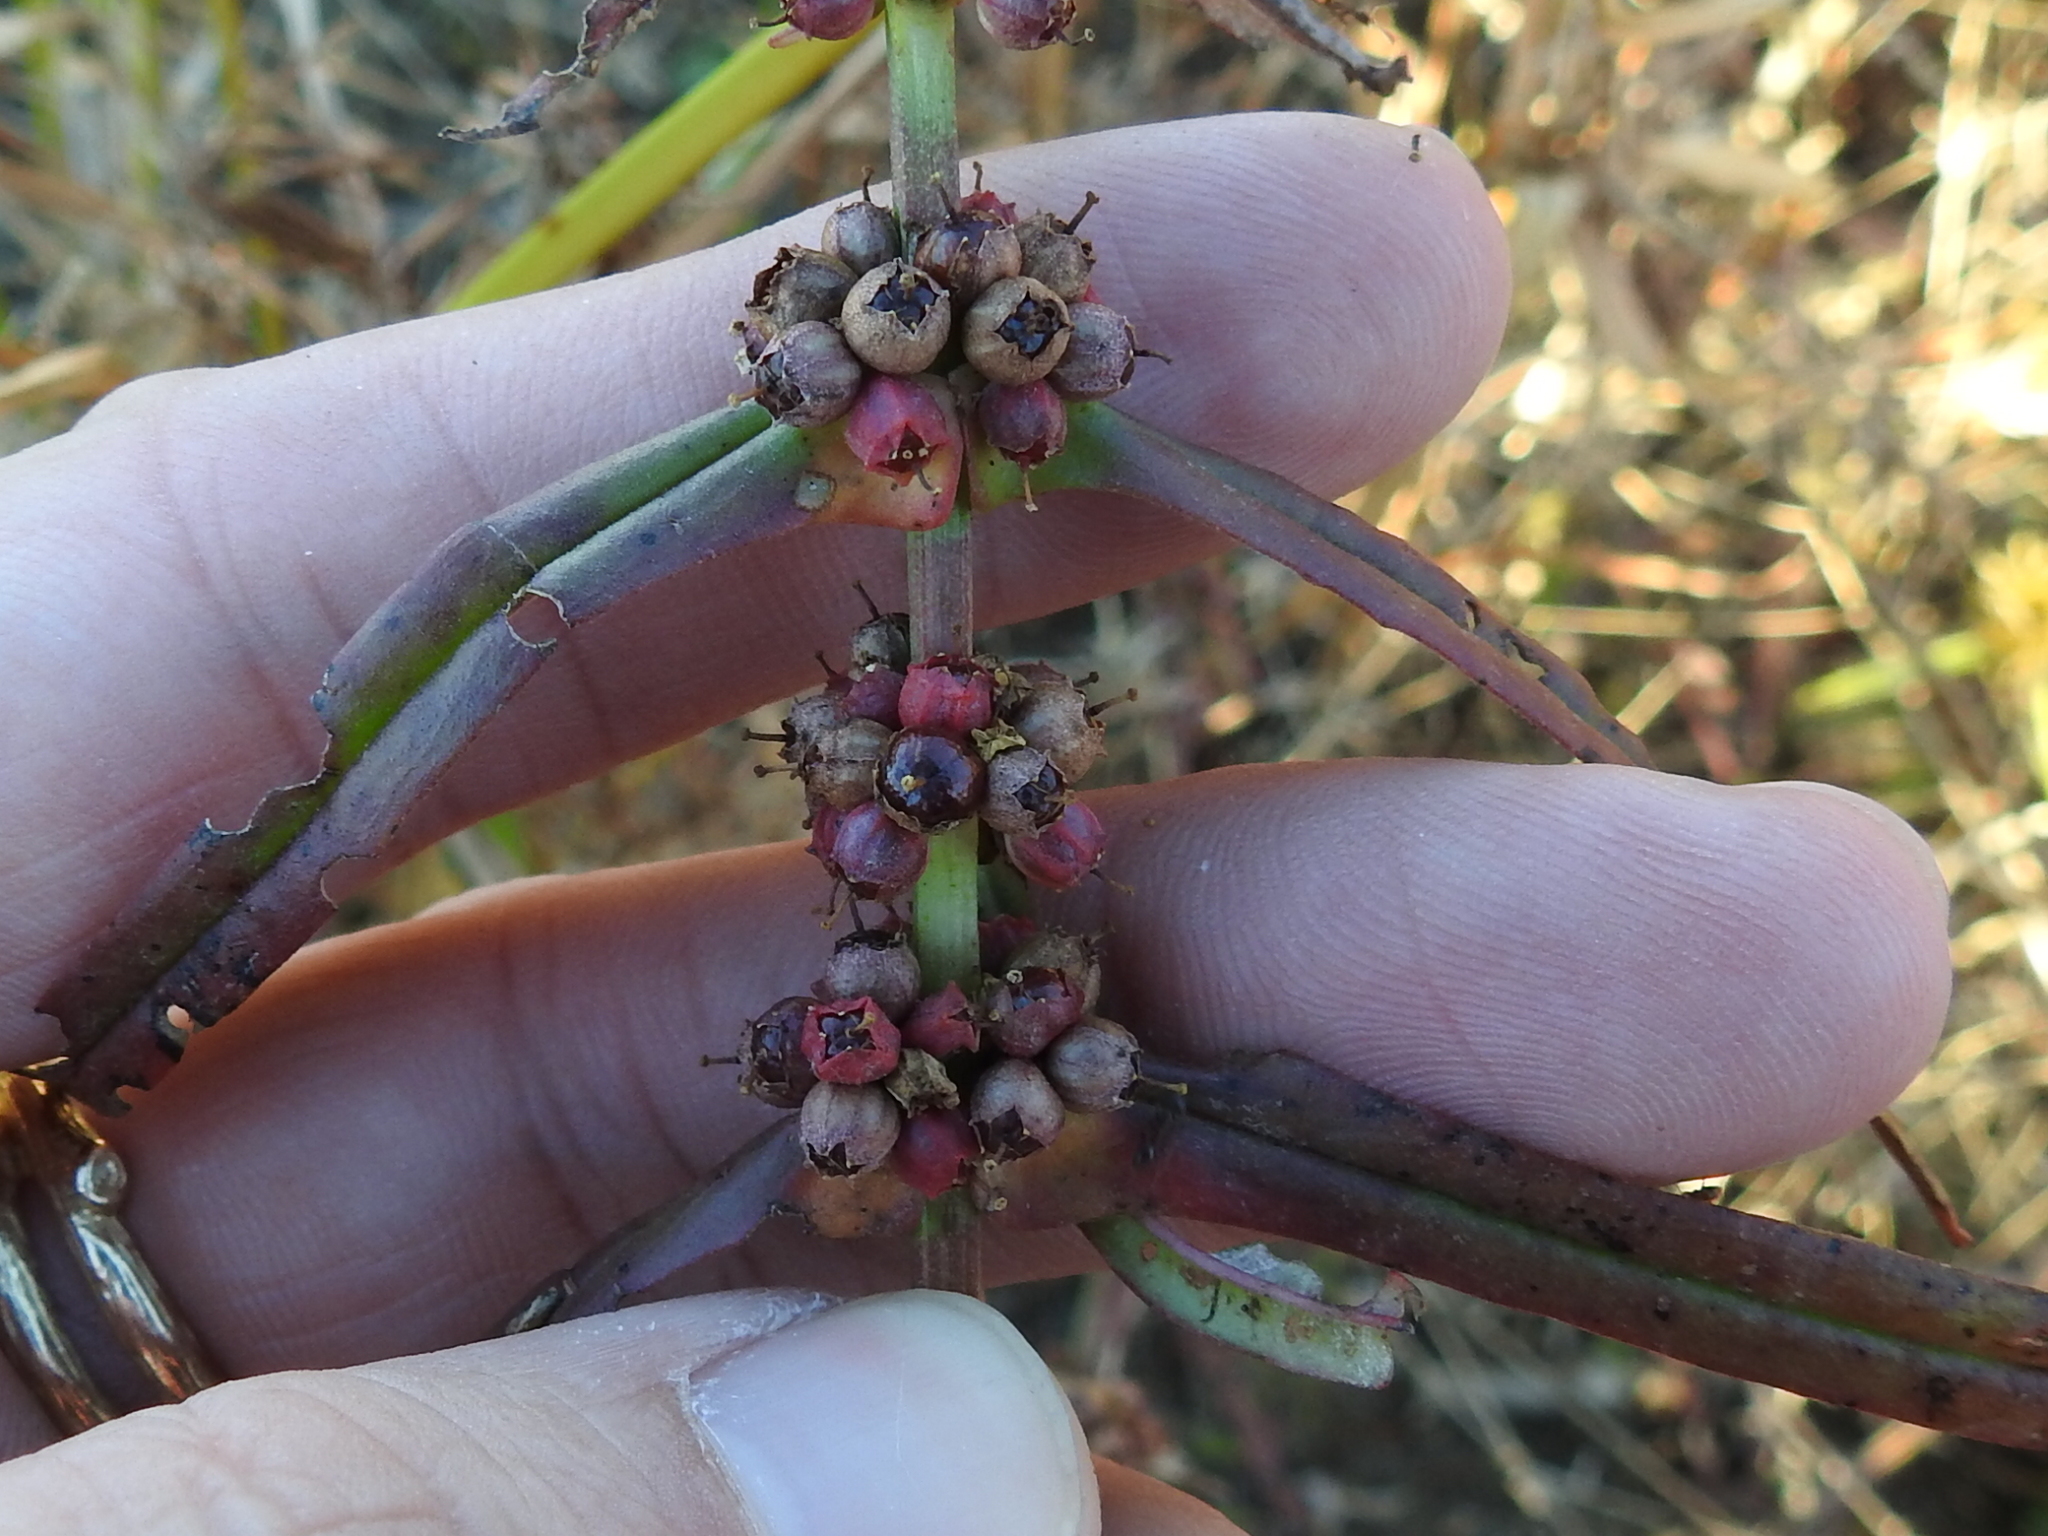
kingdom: Plantae
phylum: Tracheophyta
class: Magnoliopsida
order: Myrtales
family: Lythraceae
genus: Ammannia
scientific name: Ammannia coccinea
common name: Valley redstem
